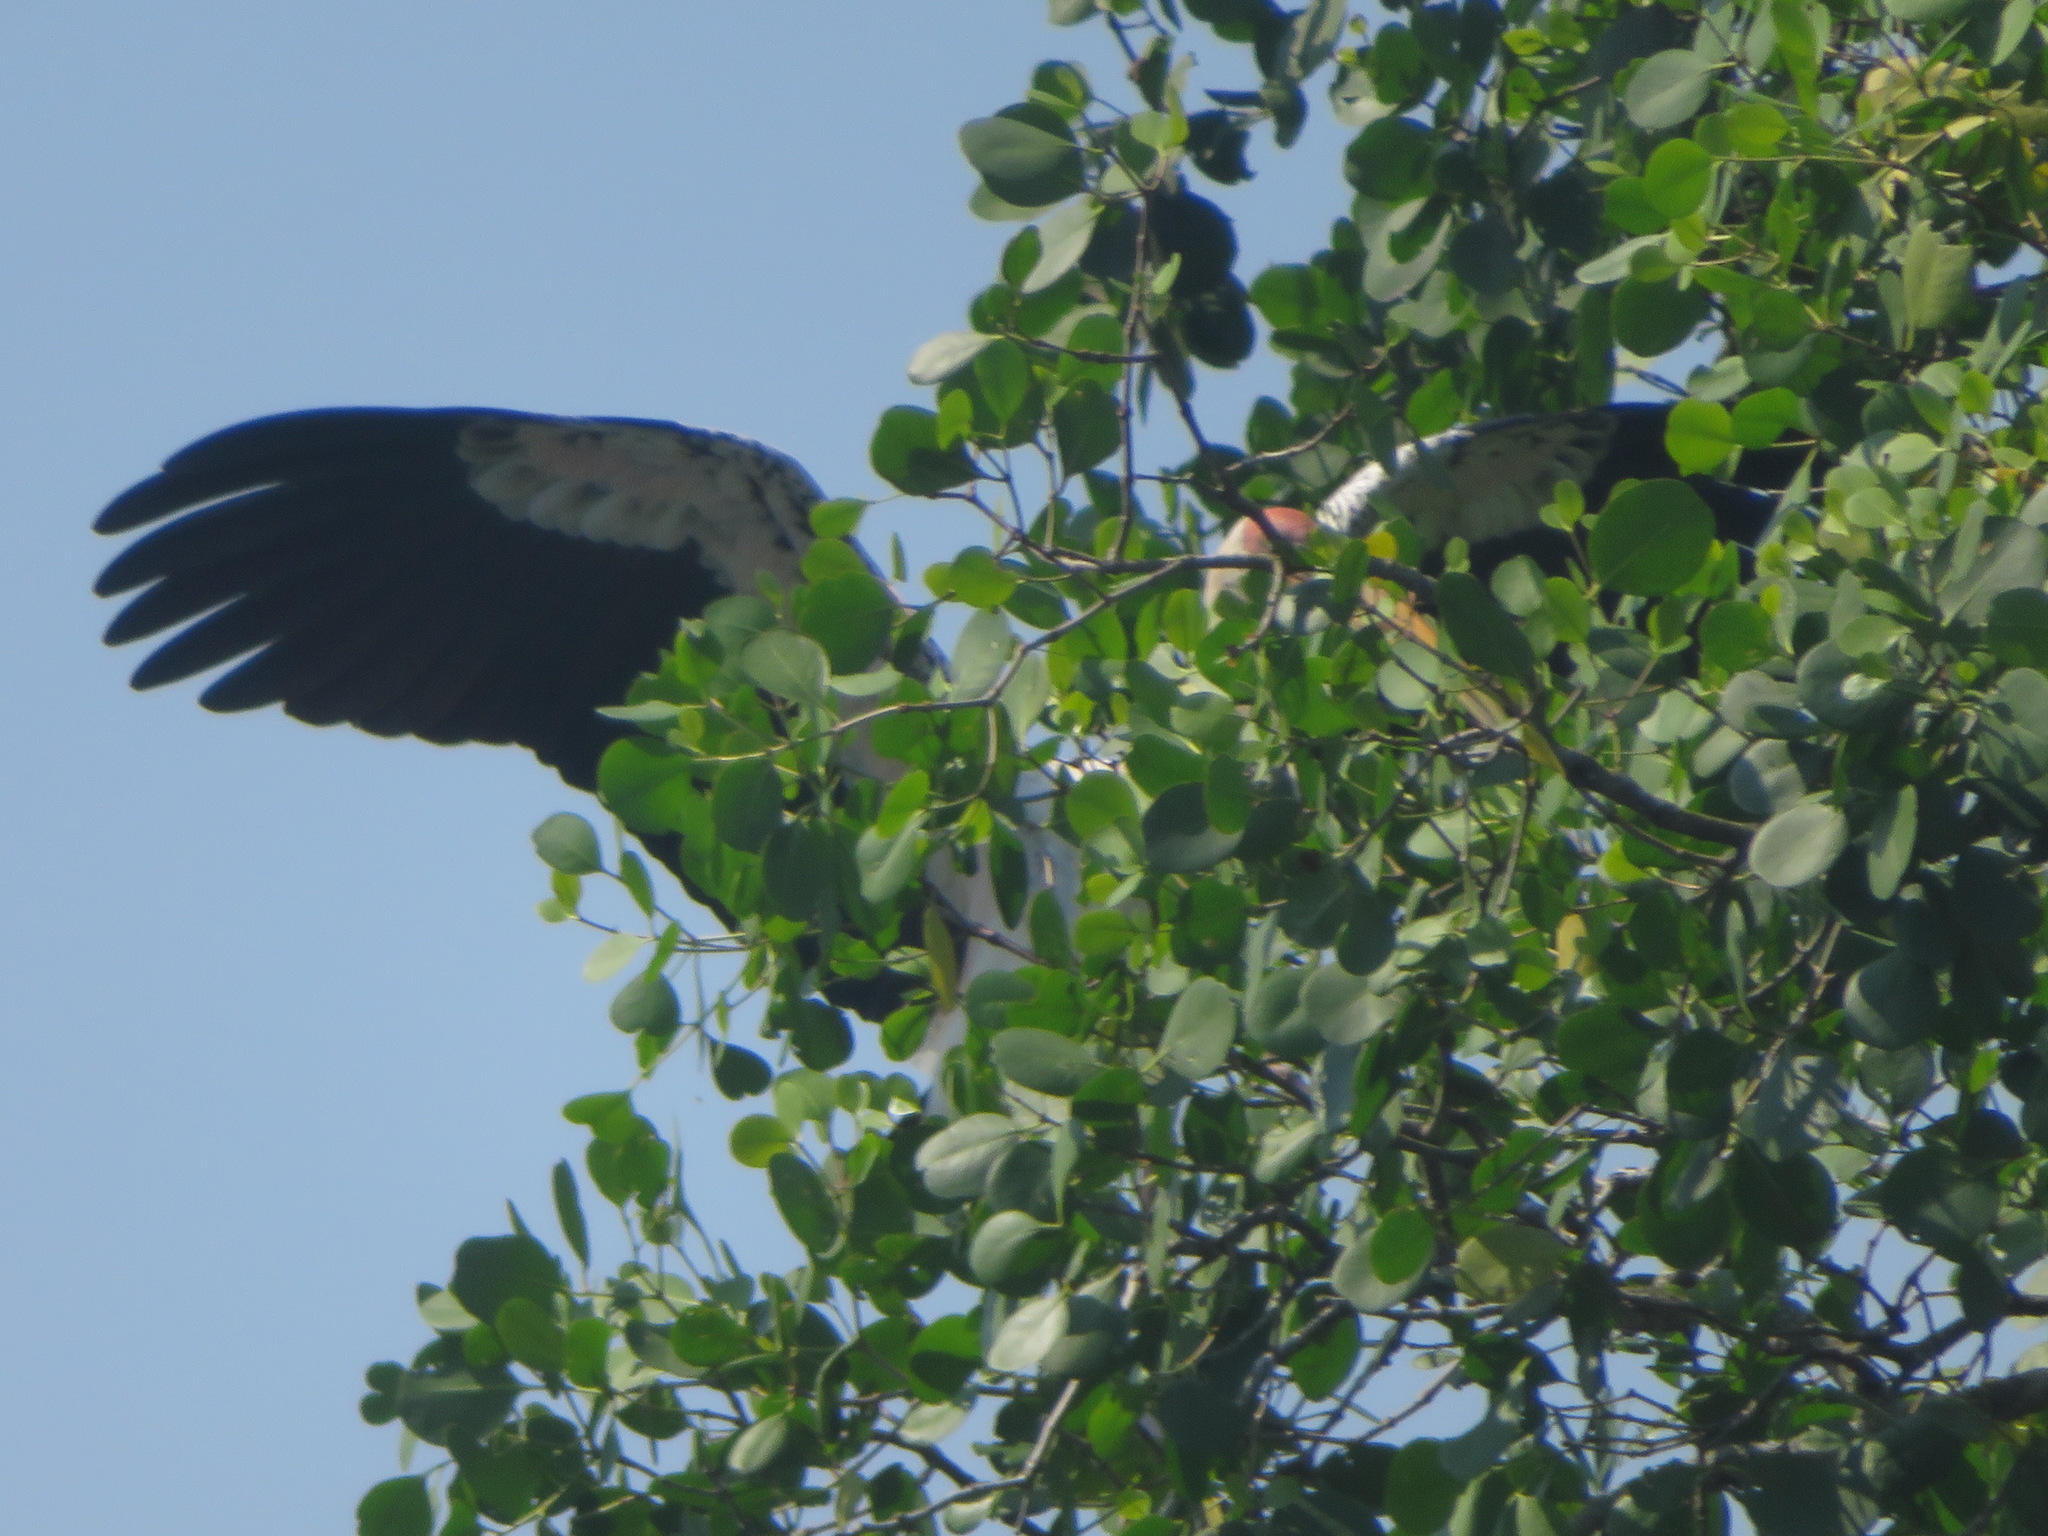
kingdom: Animalia
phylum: Chordata
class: Aves
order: Ciconiiformes
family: Ciconiidae
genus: Mycteria
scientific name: Mycteria leucocephala
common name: Painted stork
